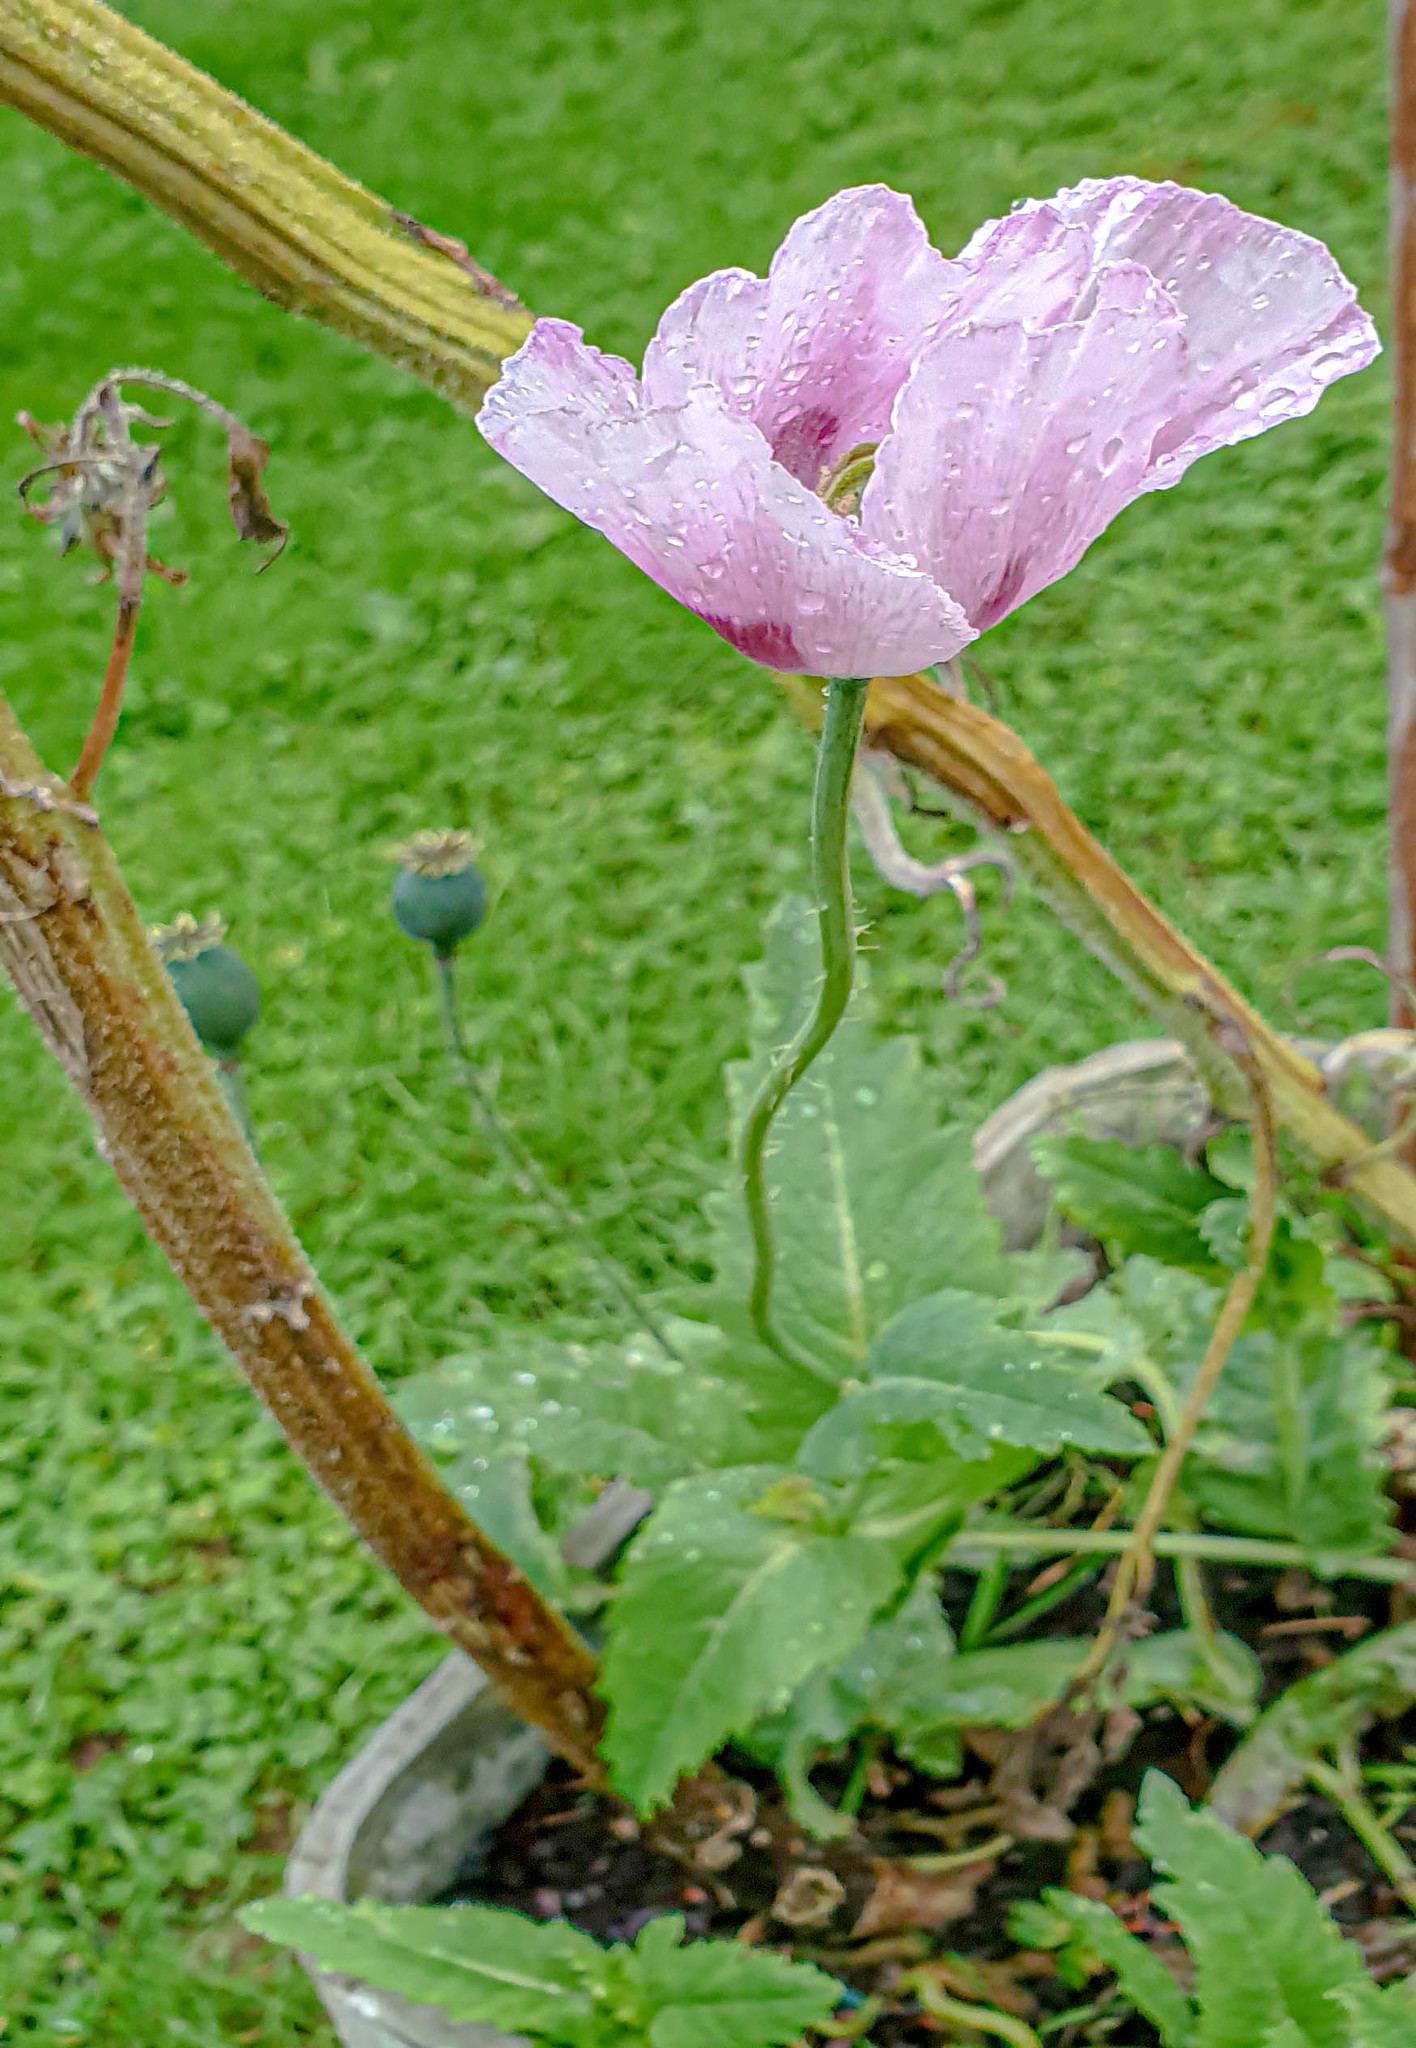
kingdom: Plantae
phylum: Tracheophyta
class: Magnoliopsida
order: Ranunculales
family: Papaveraceae
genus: Papaver
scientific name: Papaver somniferum
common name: Opium poppy
